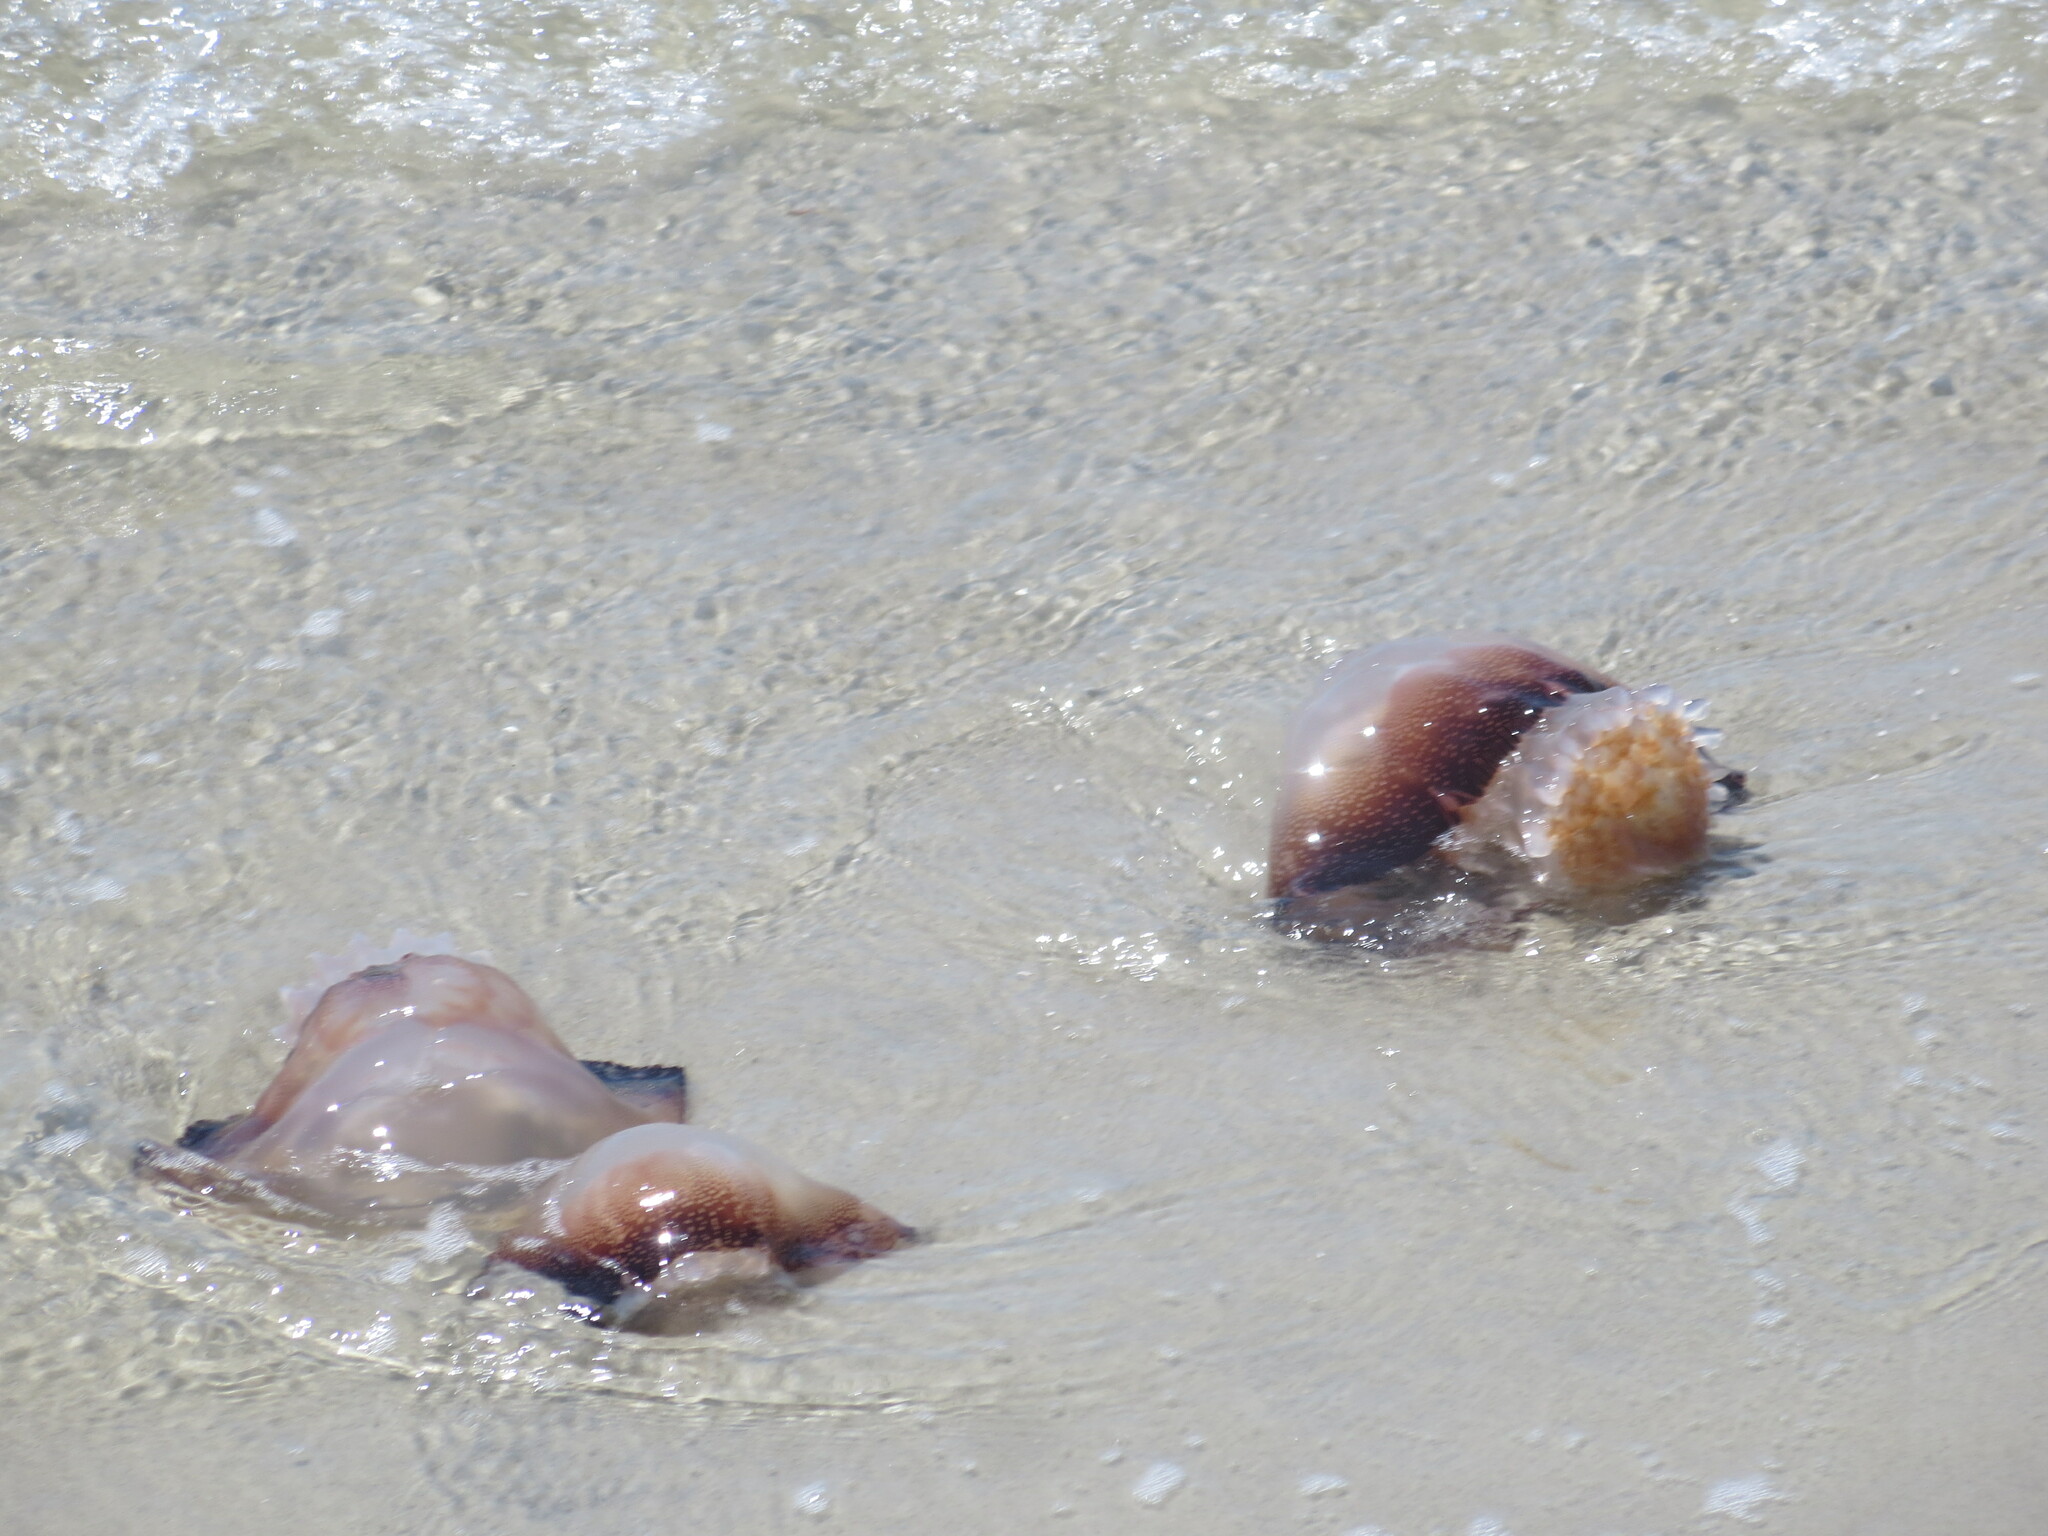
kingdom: Animalia
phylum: Cnidaria
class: Scyphozoa
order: Rhizostomeae
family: Stomolophidae
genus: Stomolophus
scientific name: Stomolophus meleagris
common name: Cabbagehead
